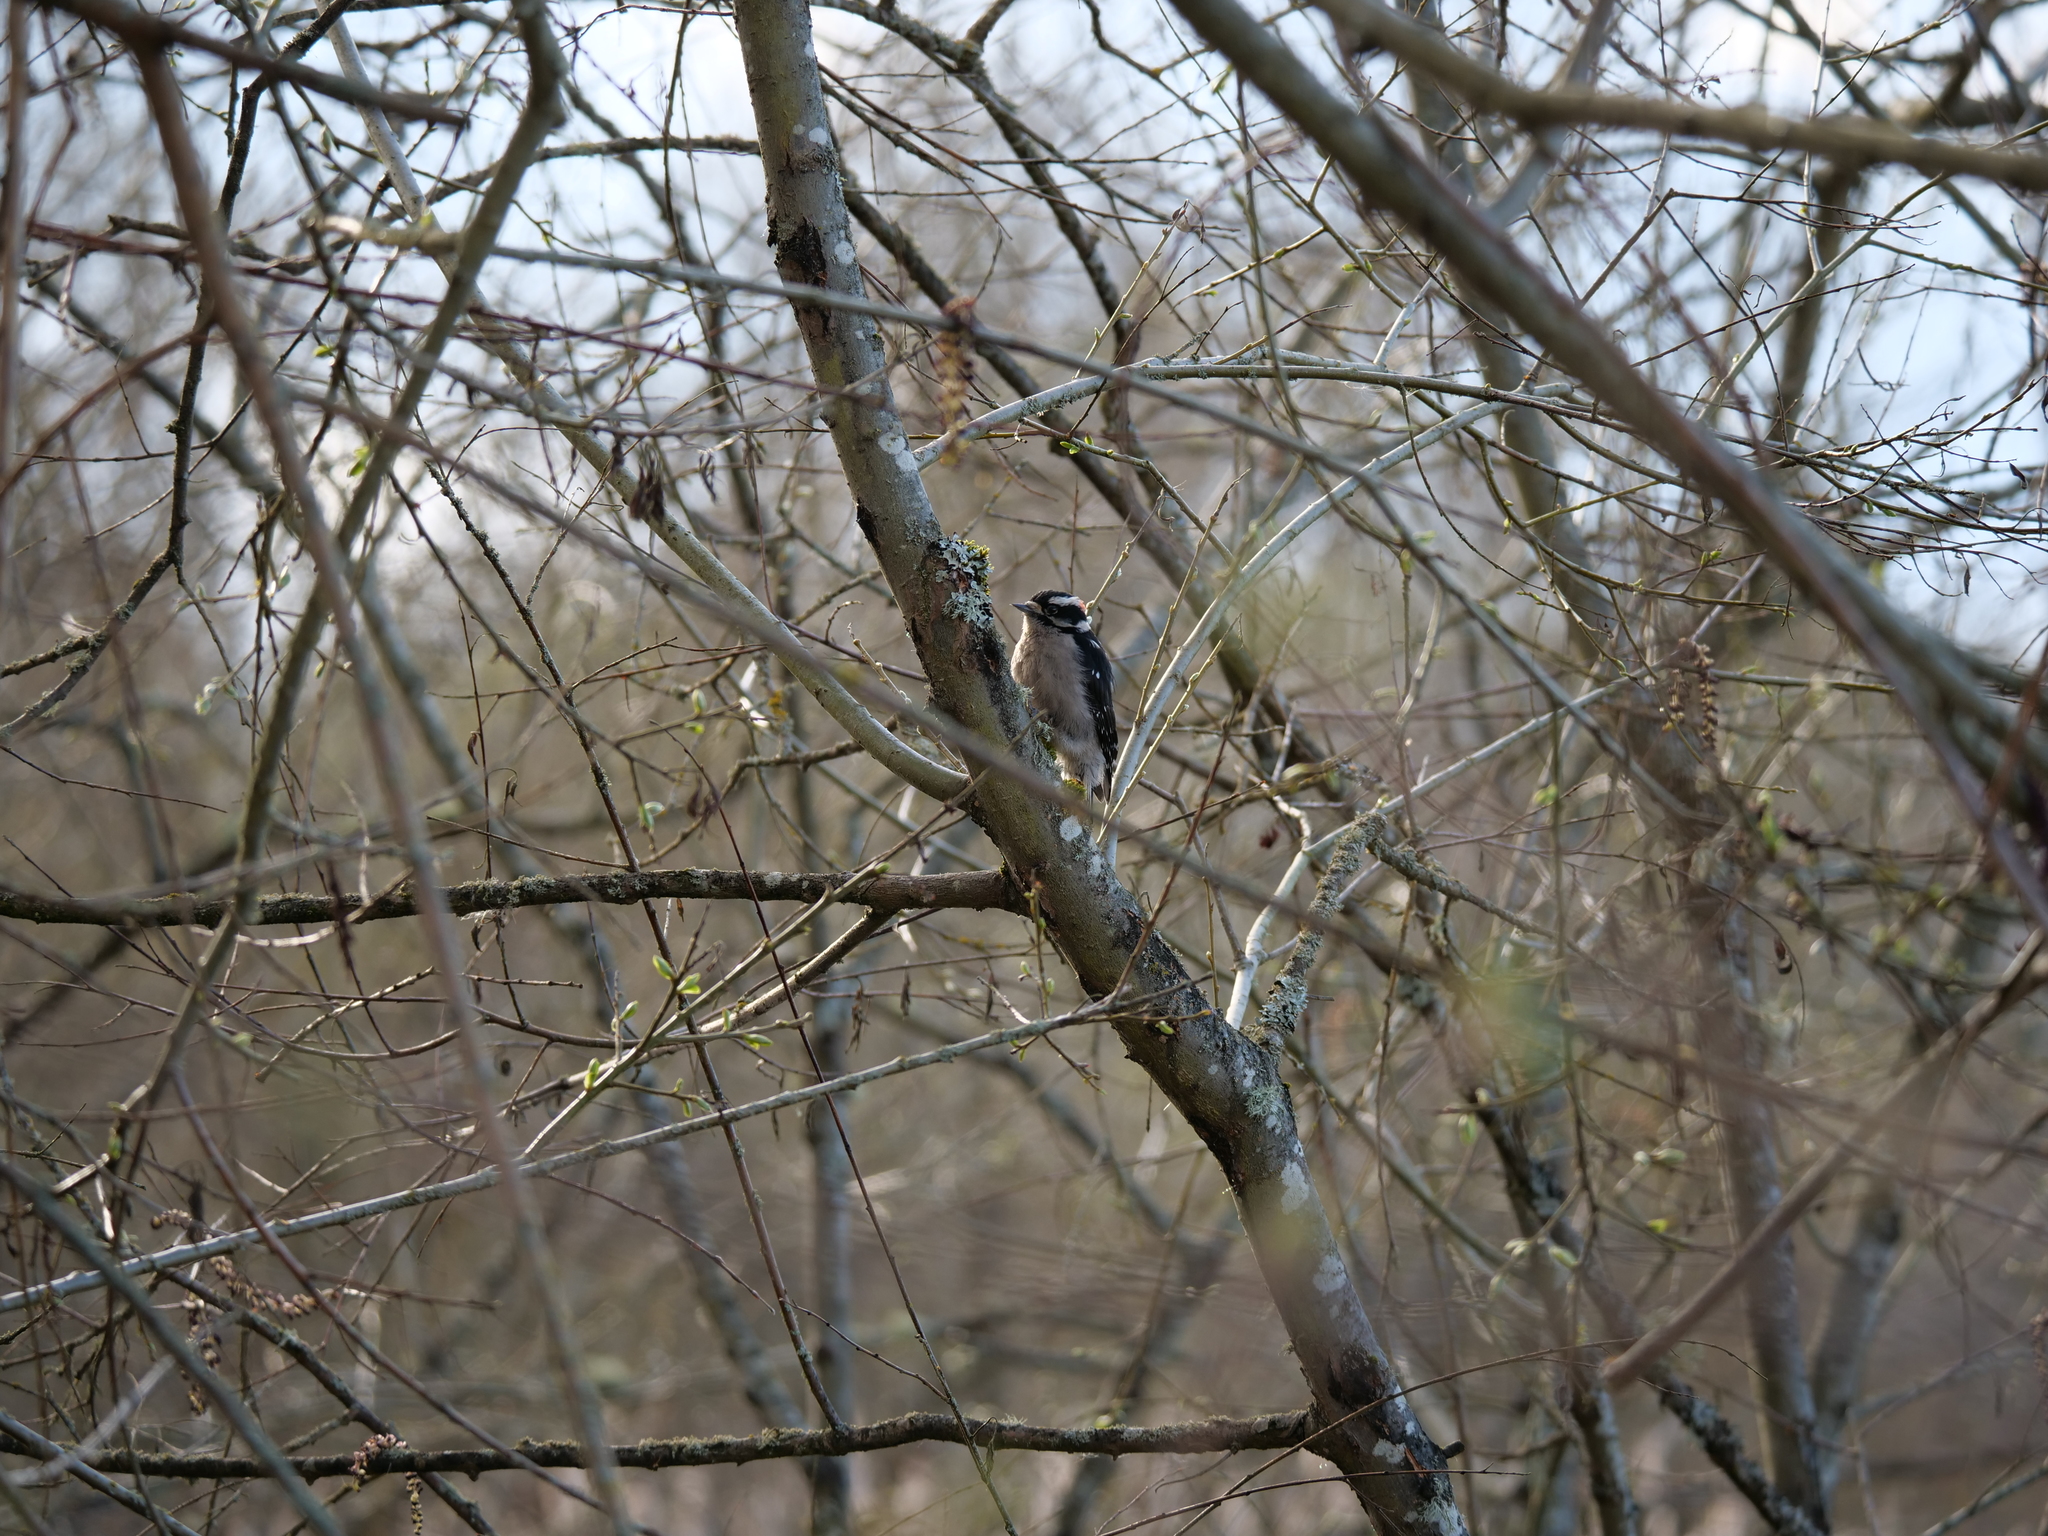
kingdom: Animalia
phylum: Chordata
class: Aves
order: Piciformes
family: Picidae
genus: Dryobates
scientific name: Dryobates pubescens
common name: Downy woodpecker
